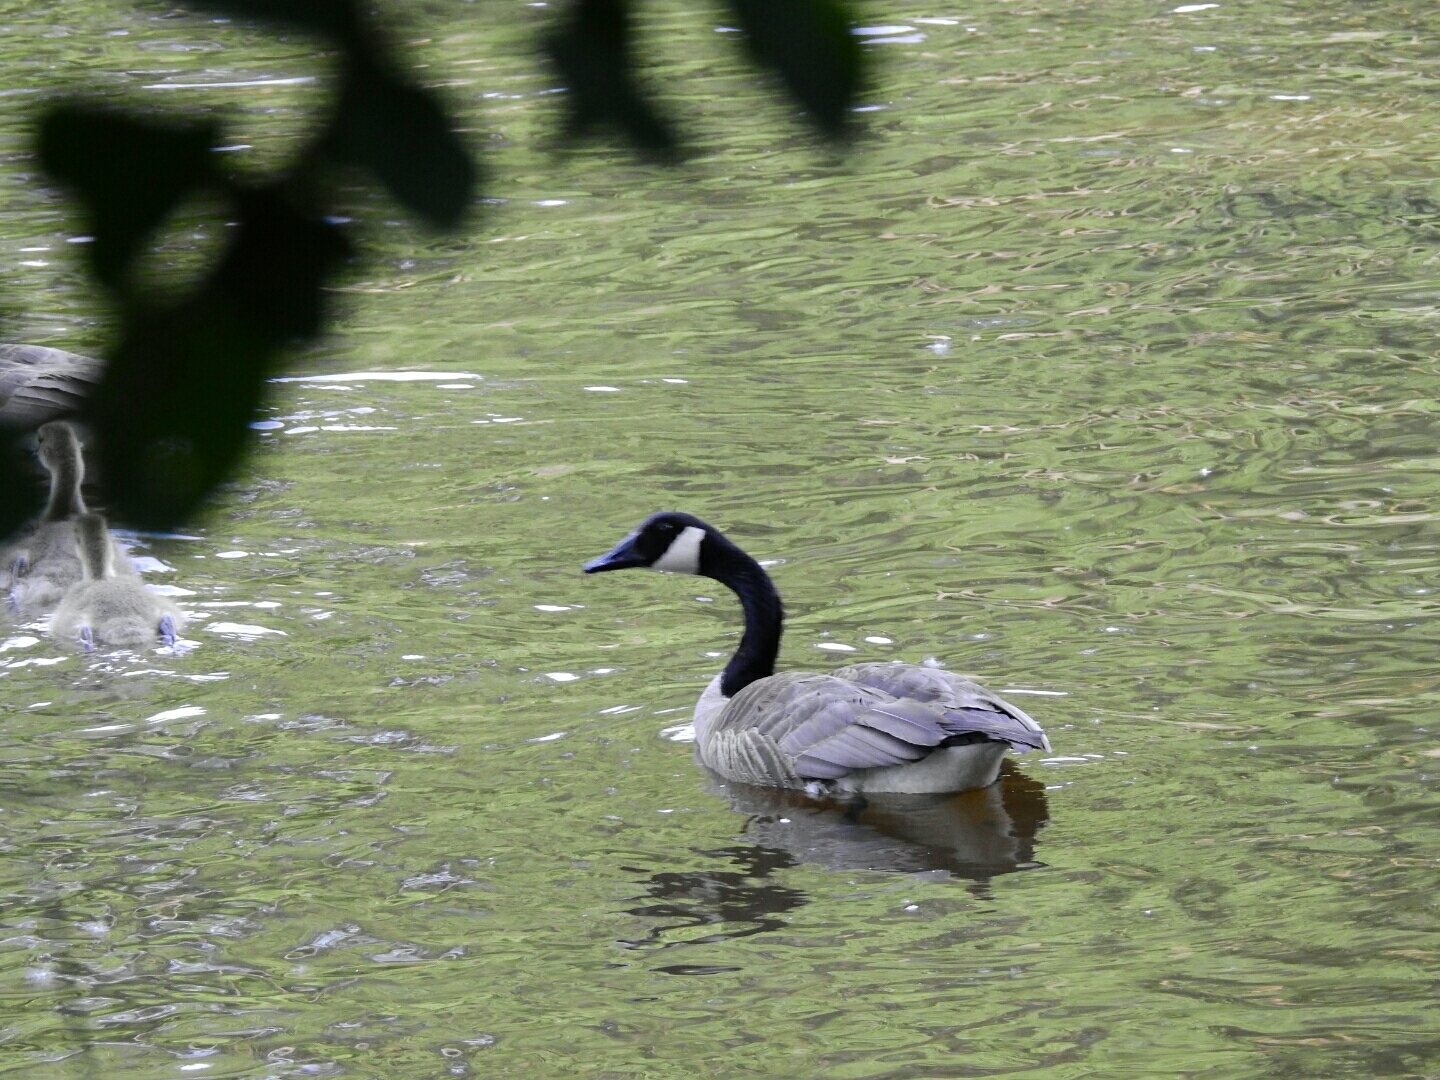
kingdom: Animalia
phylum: Chordata
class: Aves
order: Anseriformes
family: Anatidae
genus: Branta
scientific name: Branta canadensis
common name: Canada goose
